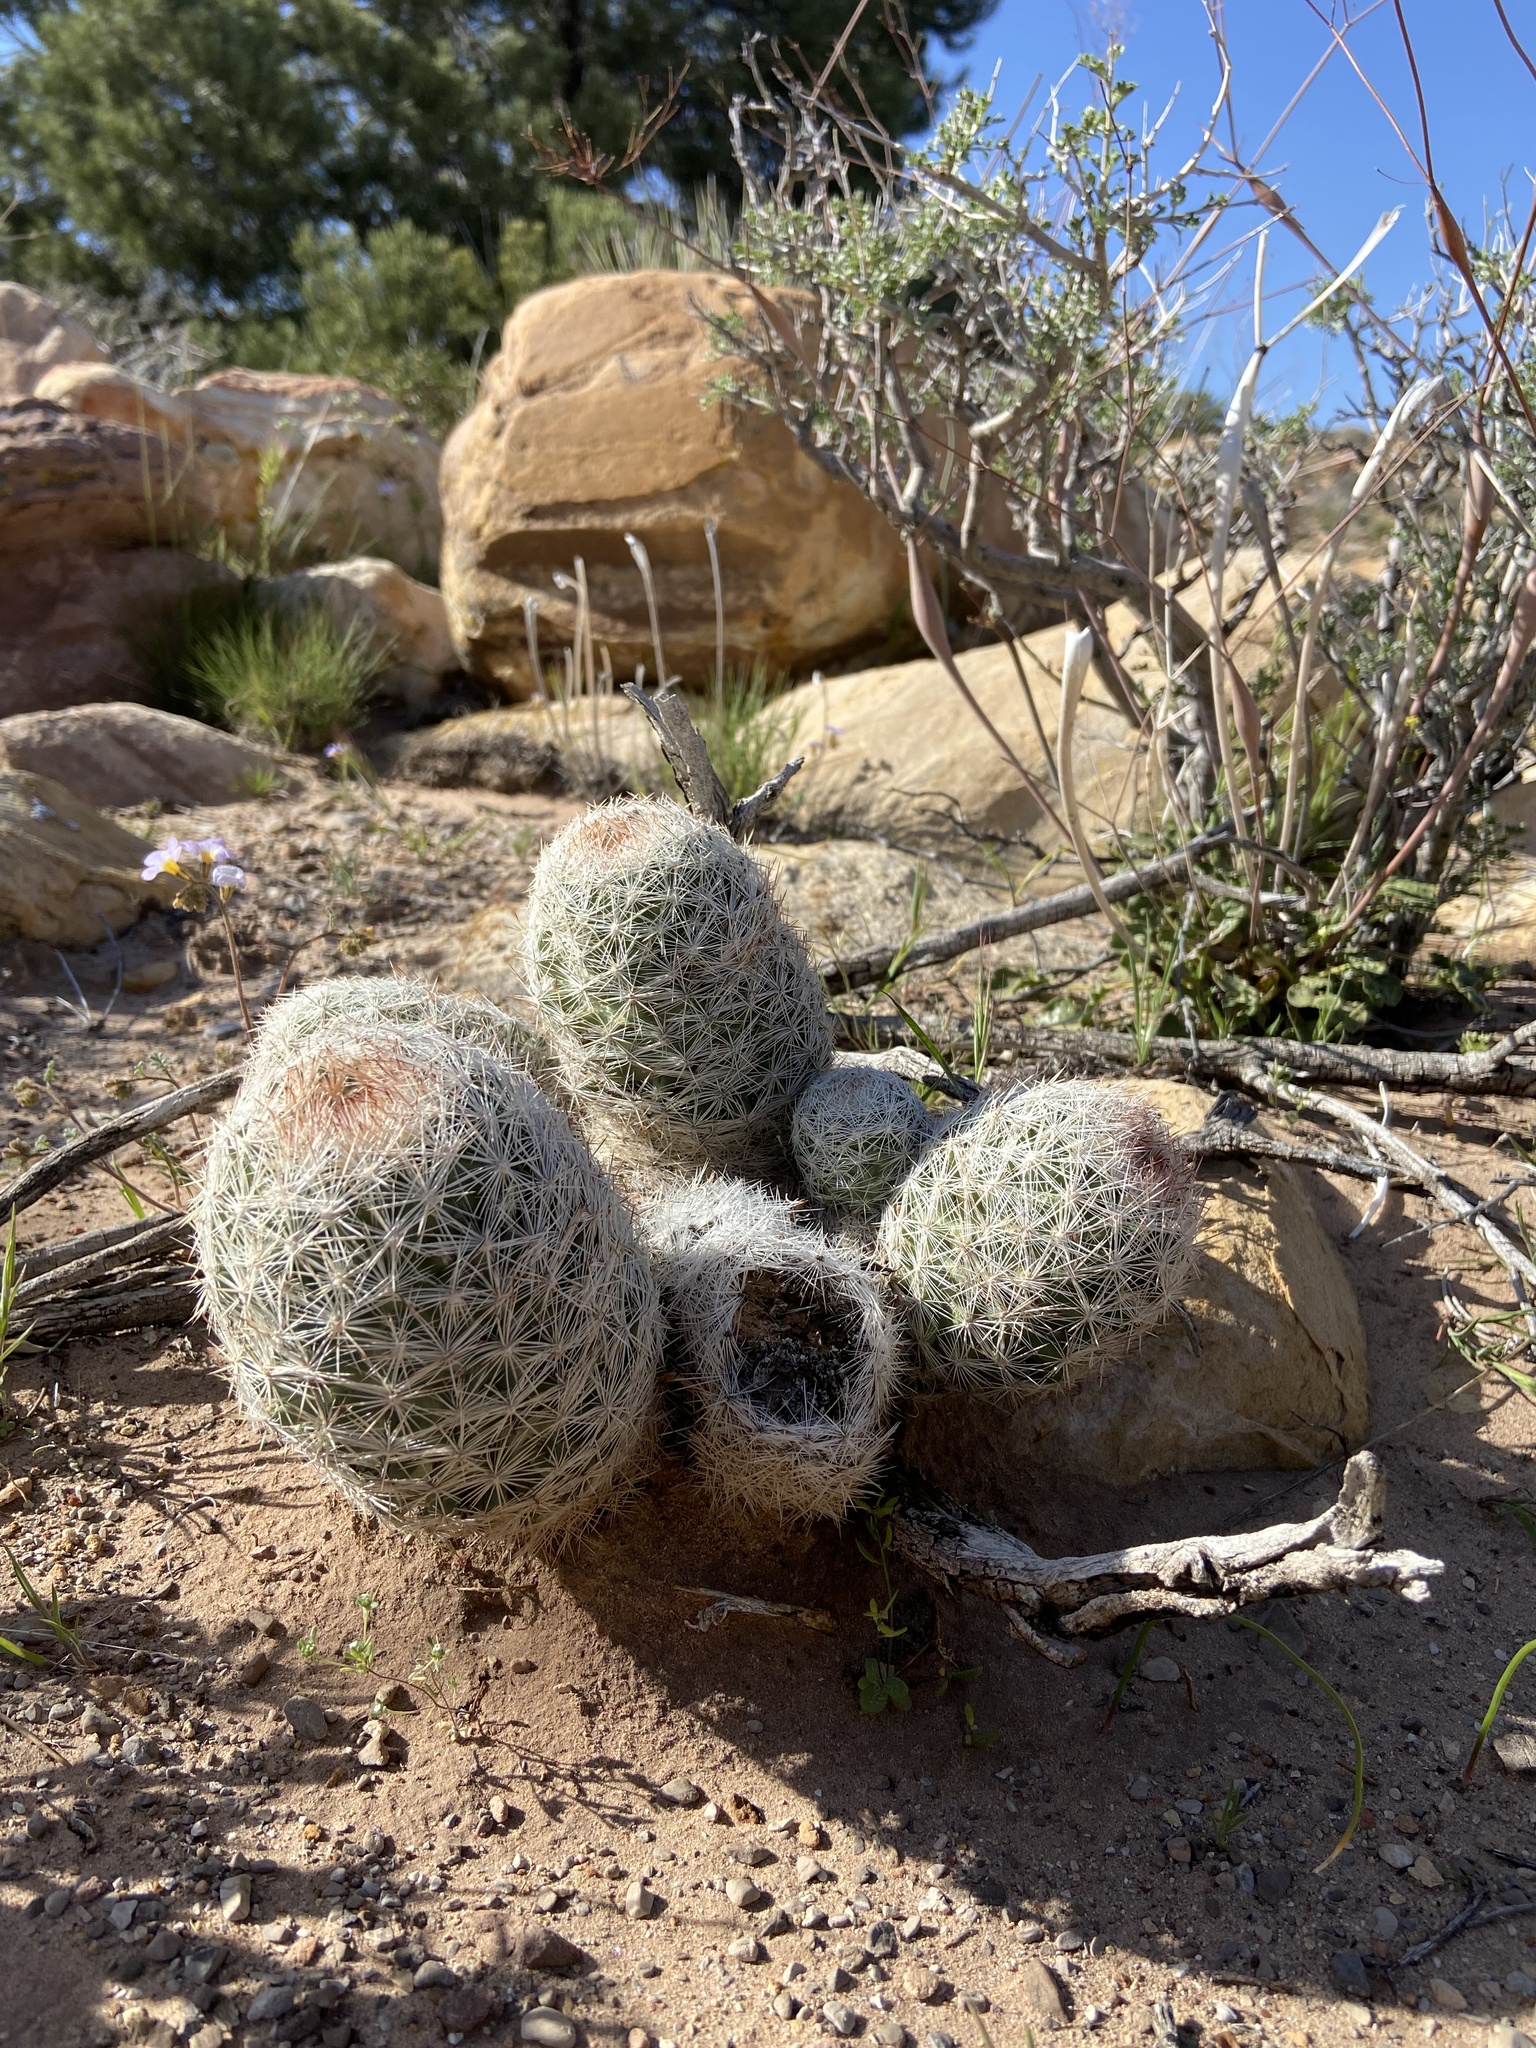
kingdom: Plantae
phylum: Tracheophyta
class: Magnoliopsida
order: Caryophyllales
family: Cactaceae
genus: Pelecyphora
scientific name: Pelecyphora dasyacantha
